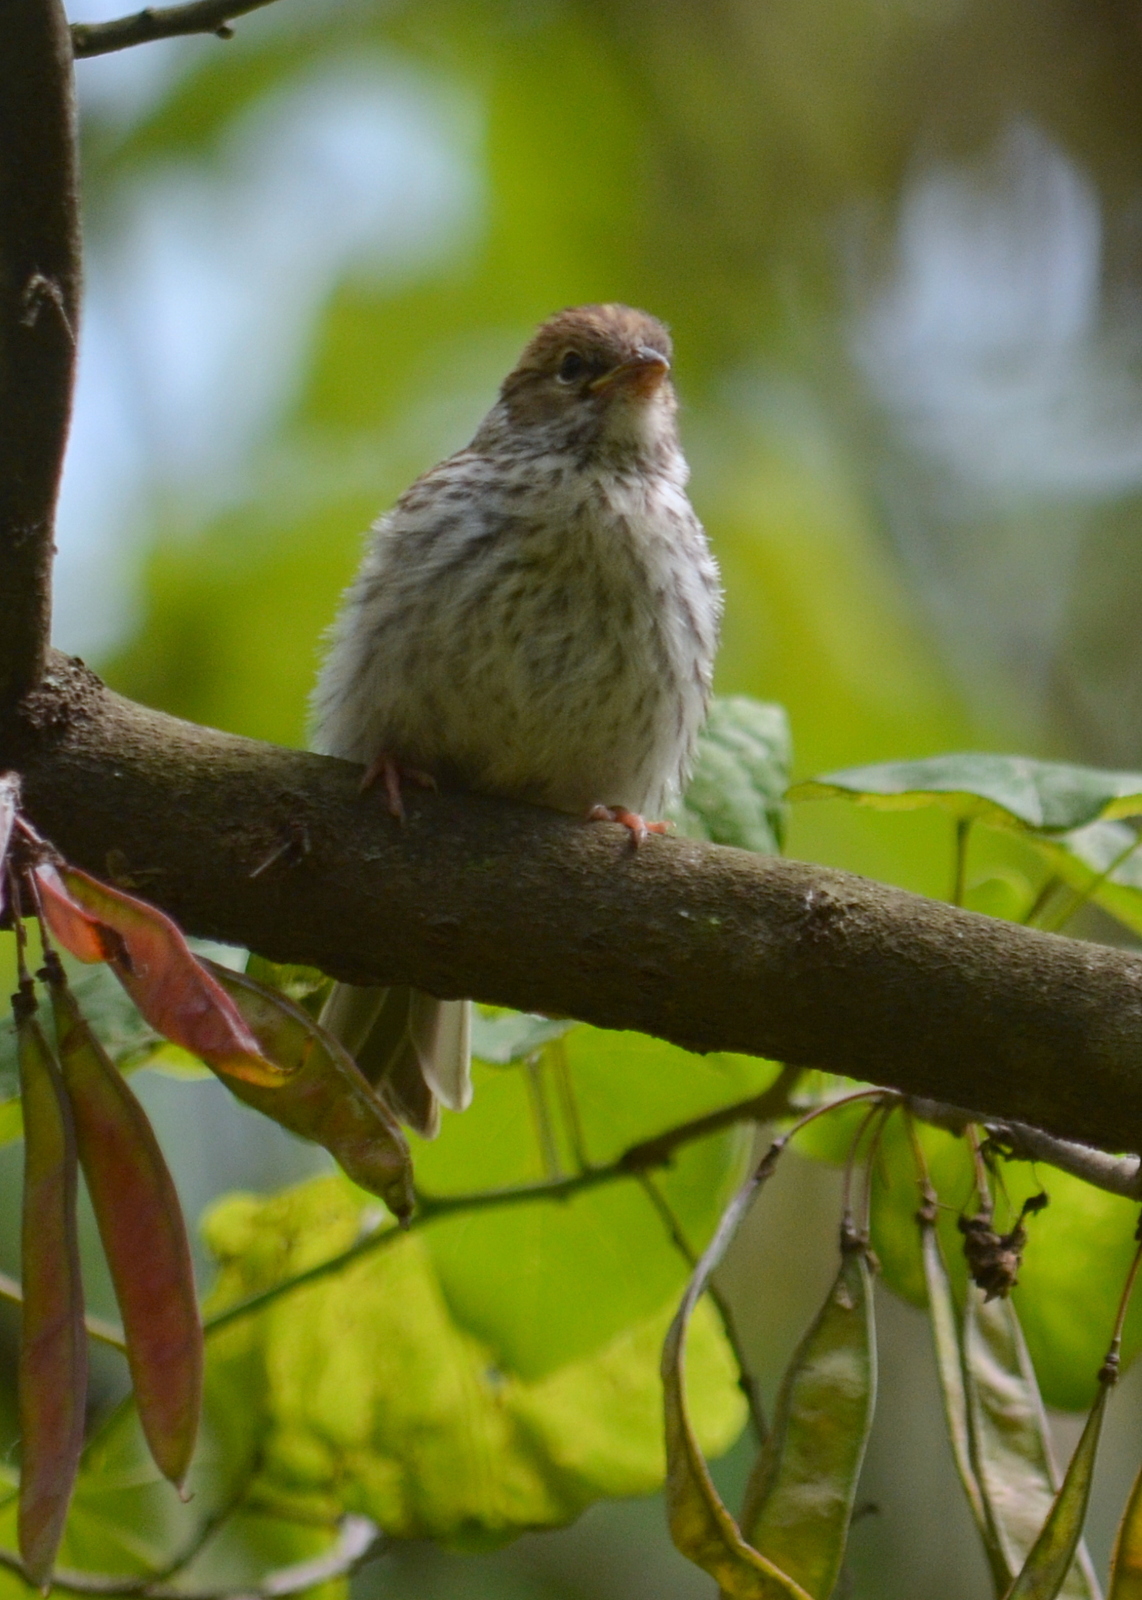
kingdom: Animalia
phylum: Chordata
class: Aves
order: Passeriformes
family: Passerellidae
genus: Spizella
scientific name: Spizella passerina
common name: Chipping sparrow
